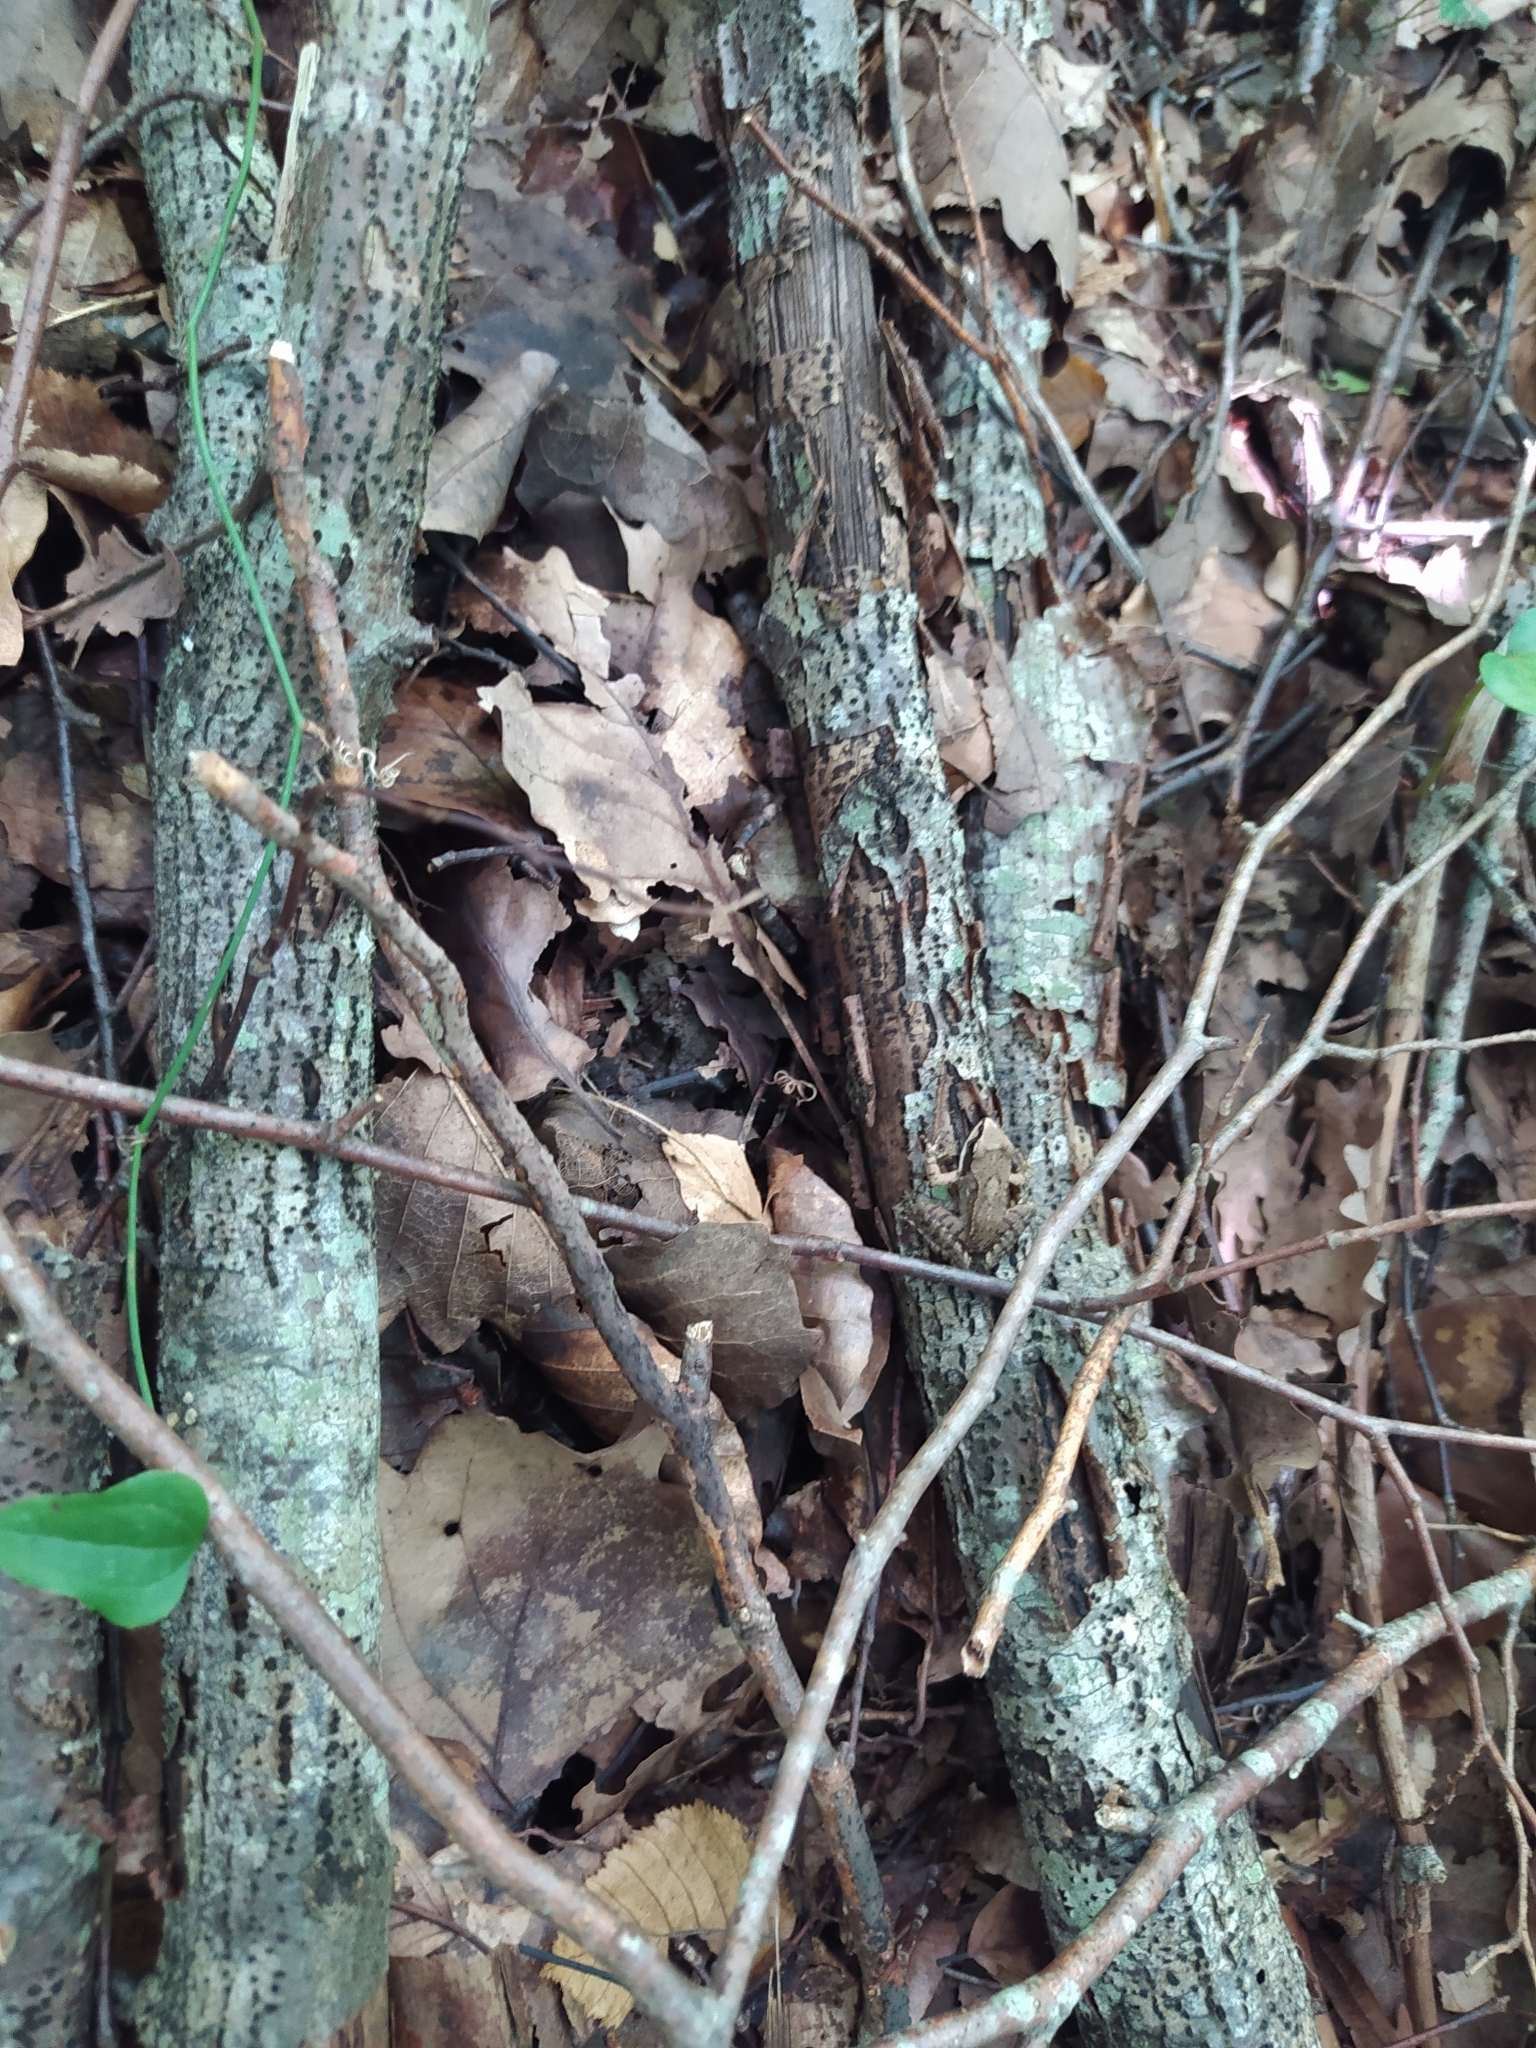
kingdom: Animalia
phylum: Chordata
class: Amphibia
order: Anura
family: Ranidae
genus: Rana
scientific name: Rana macrocnemis
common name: Banded frog
